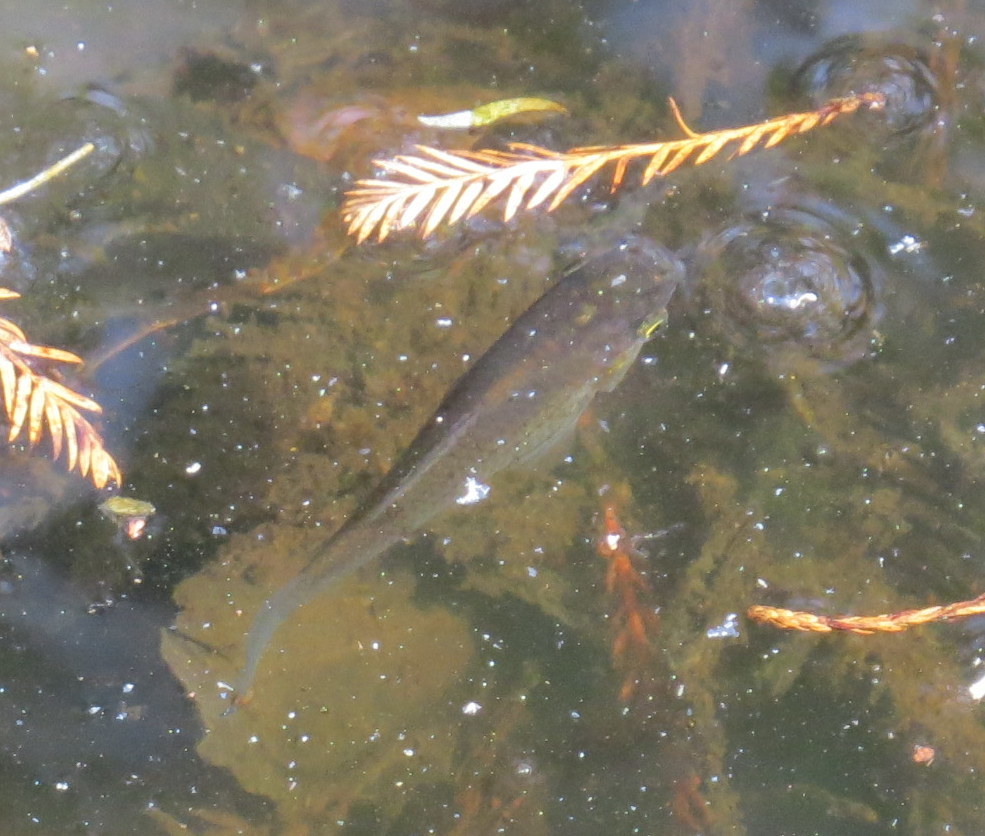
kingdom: Animalia
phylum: Chordata
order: Cyprinodontiformes
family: Poeciliidae
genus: Poecilia
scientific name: Poecilia latipinna
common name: Sailfin molly
